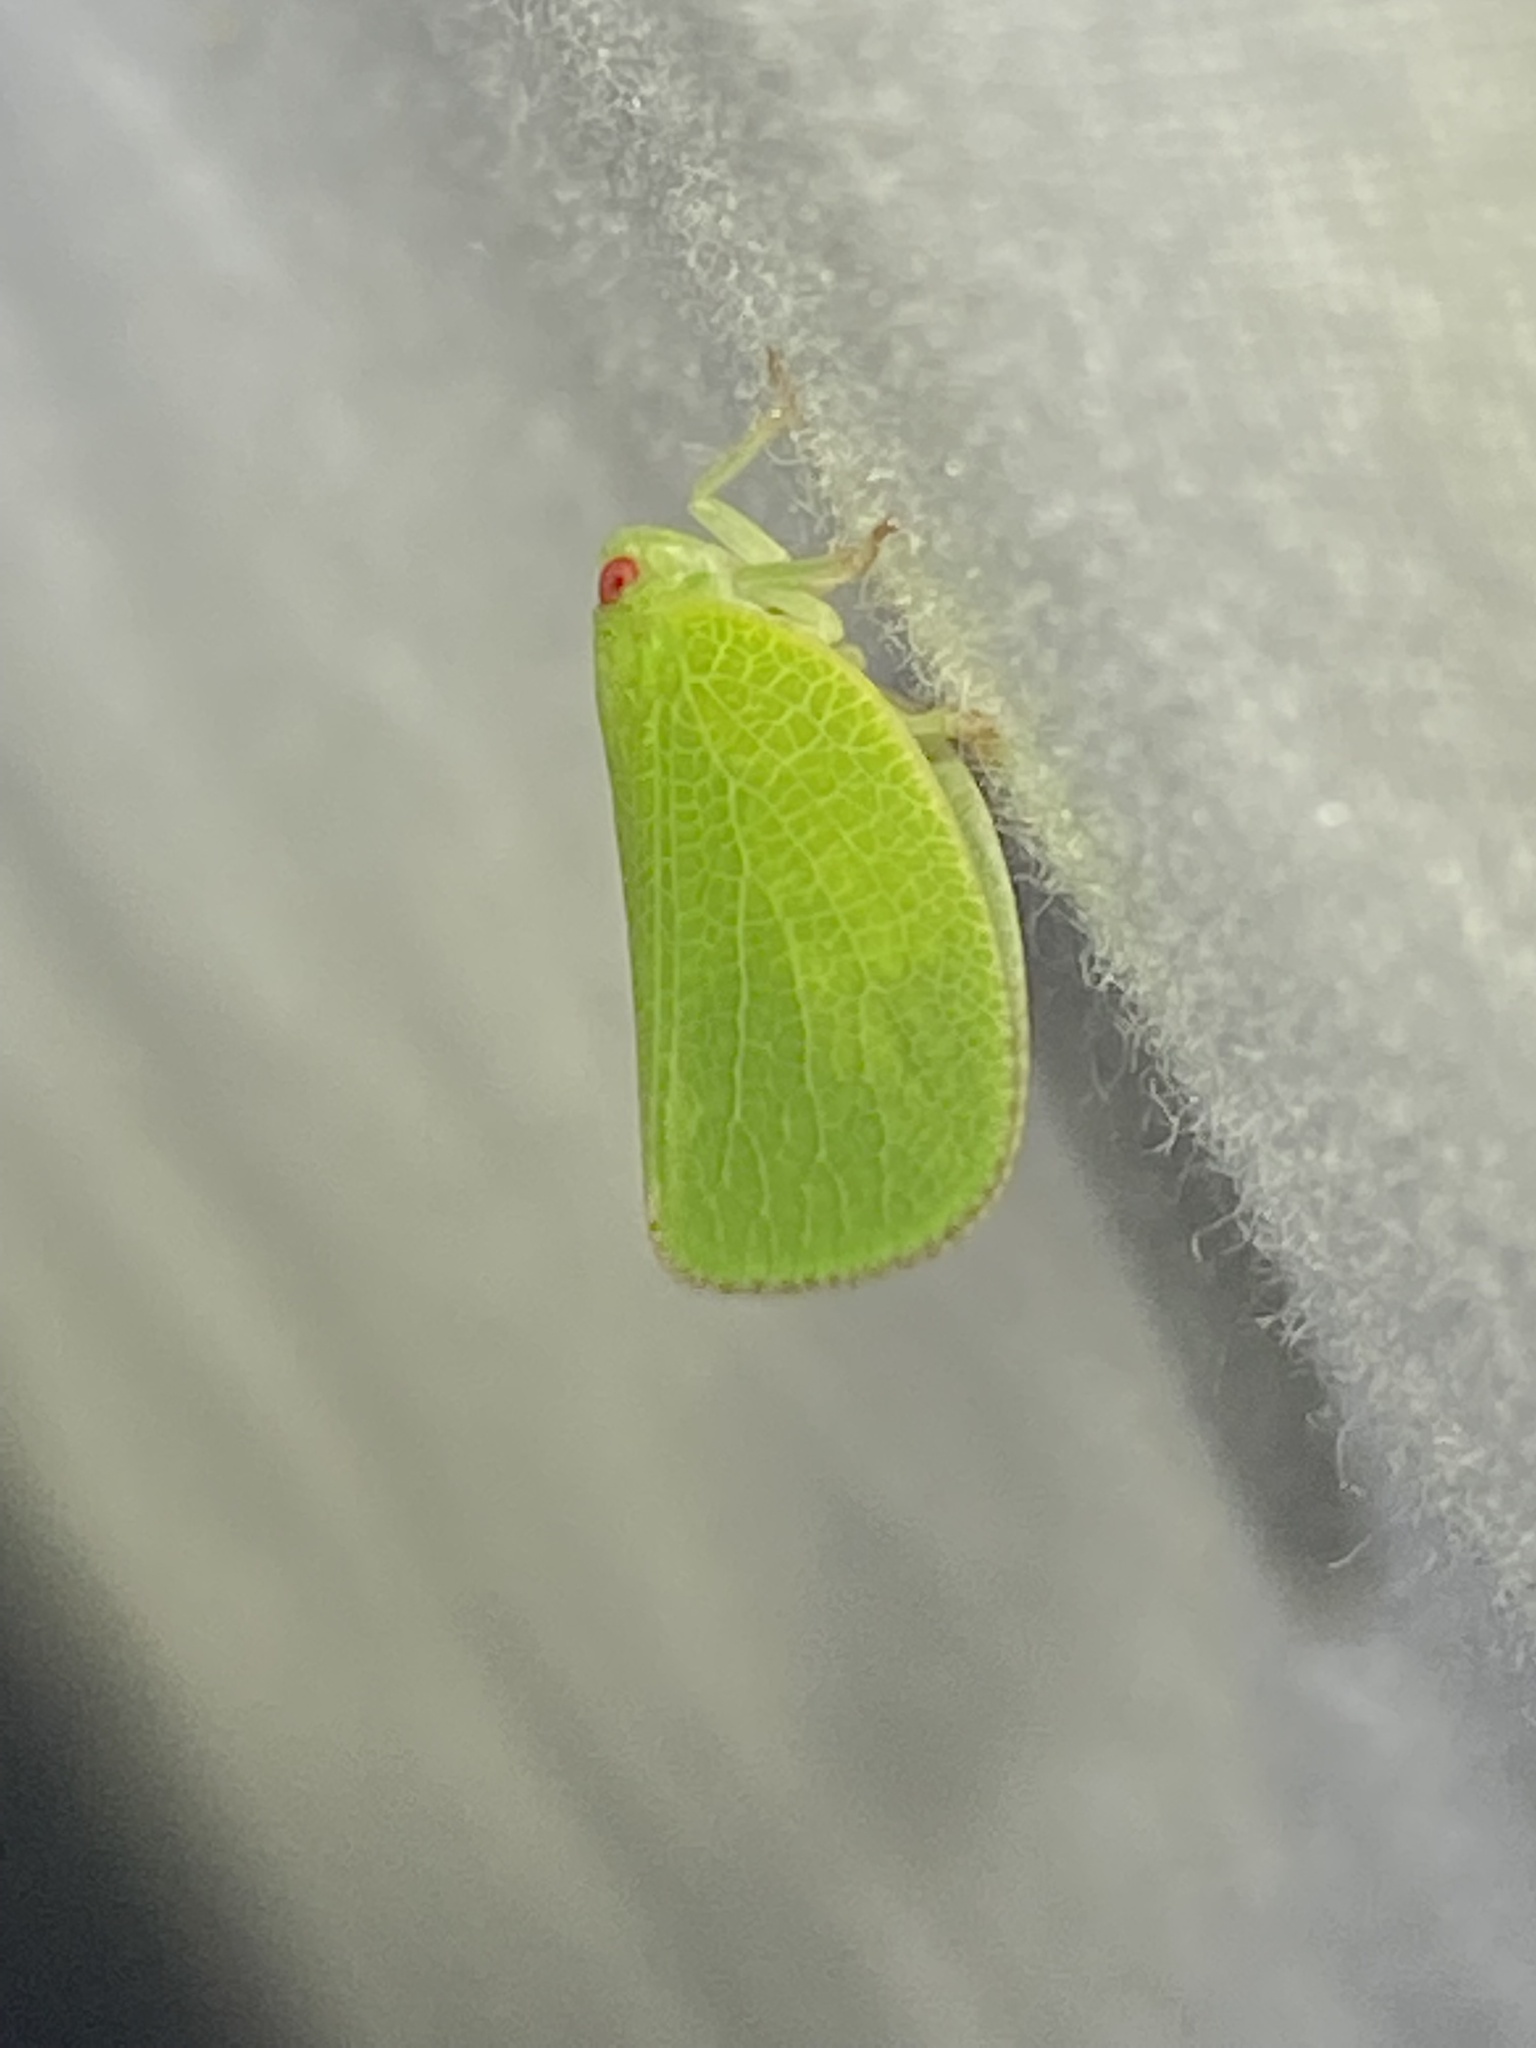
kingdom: Animalia
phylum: Arthropoda
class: Insecta
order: Hemiptera
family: Acanaloniidae
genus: Acanalonia
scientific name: Acanalonia conica
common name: Green cone-headed planthopper
